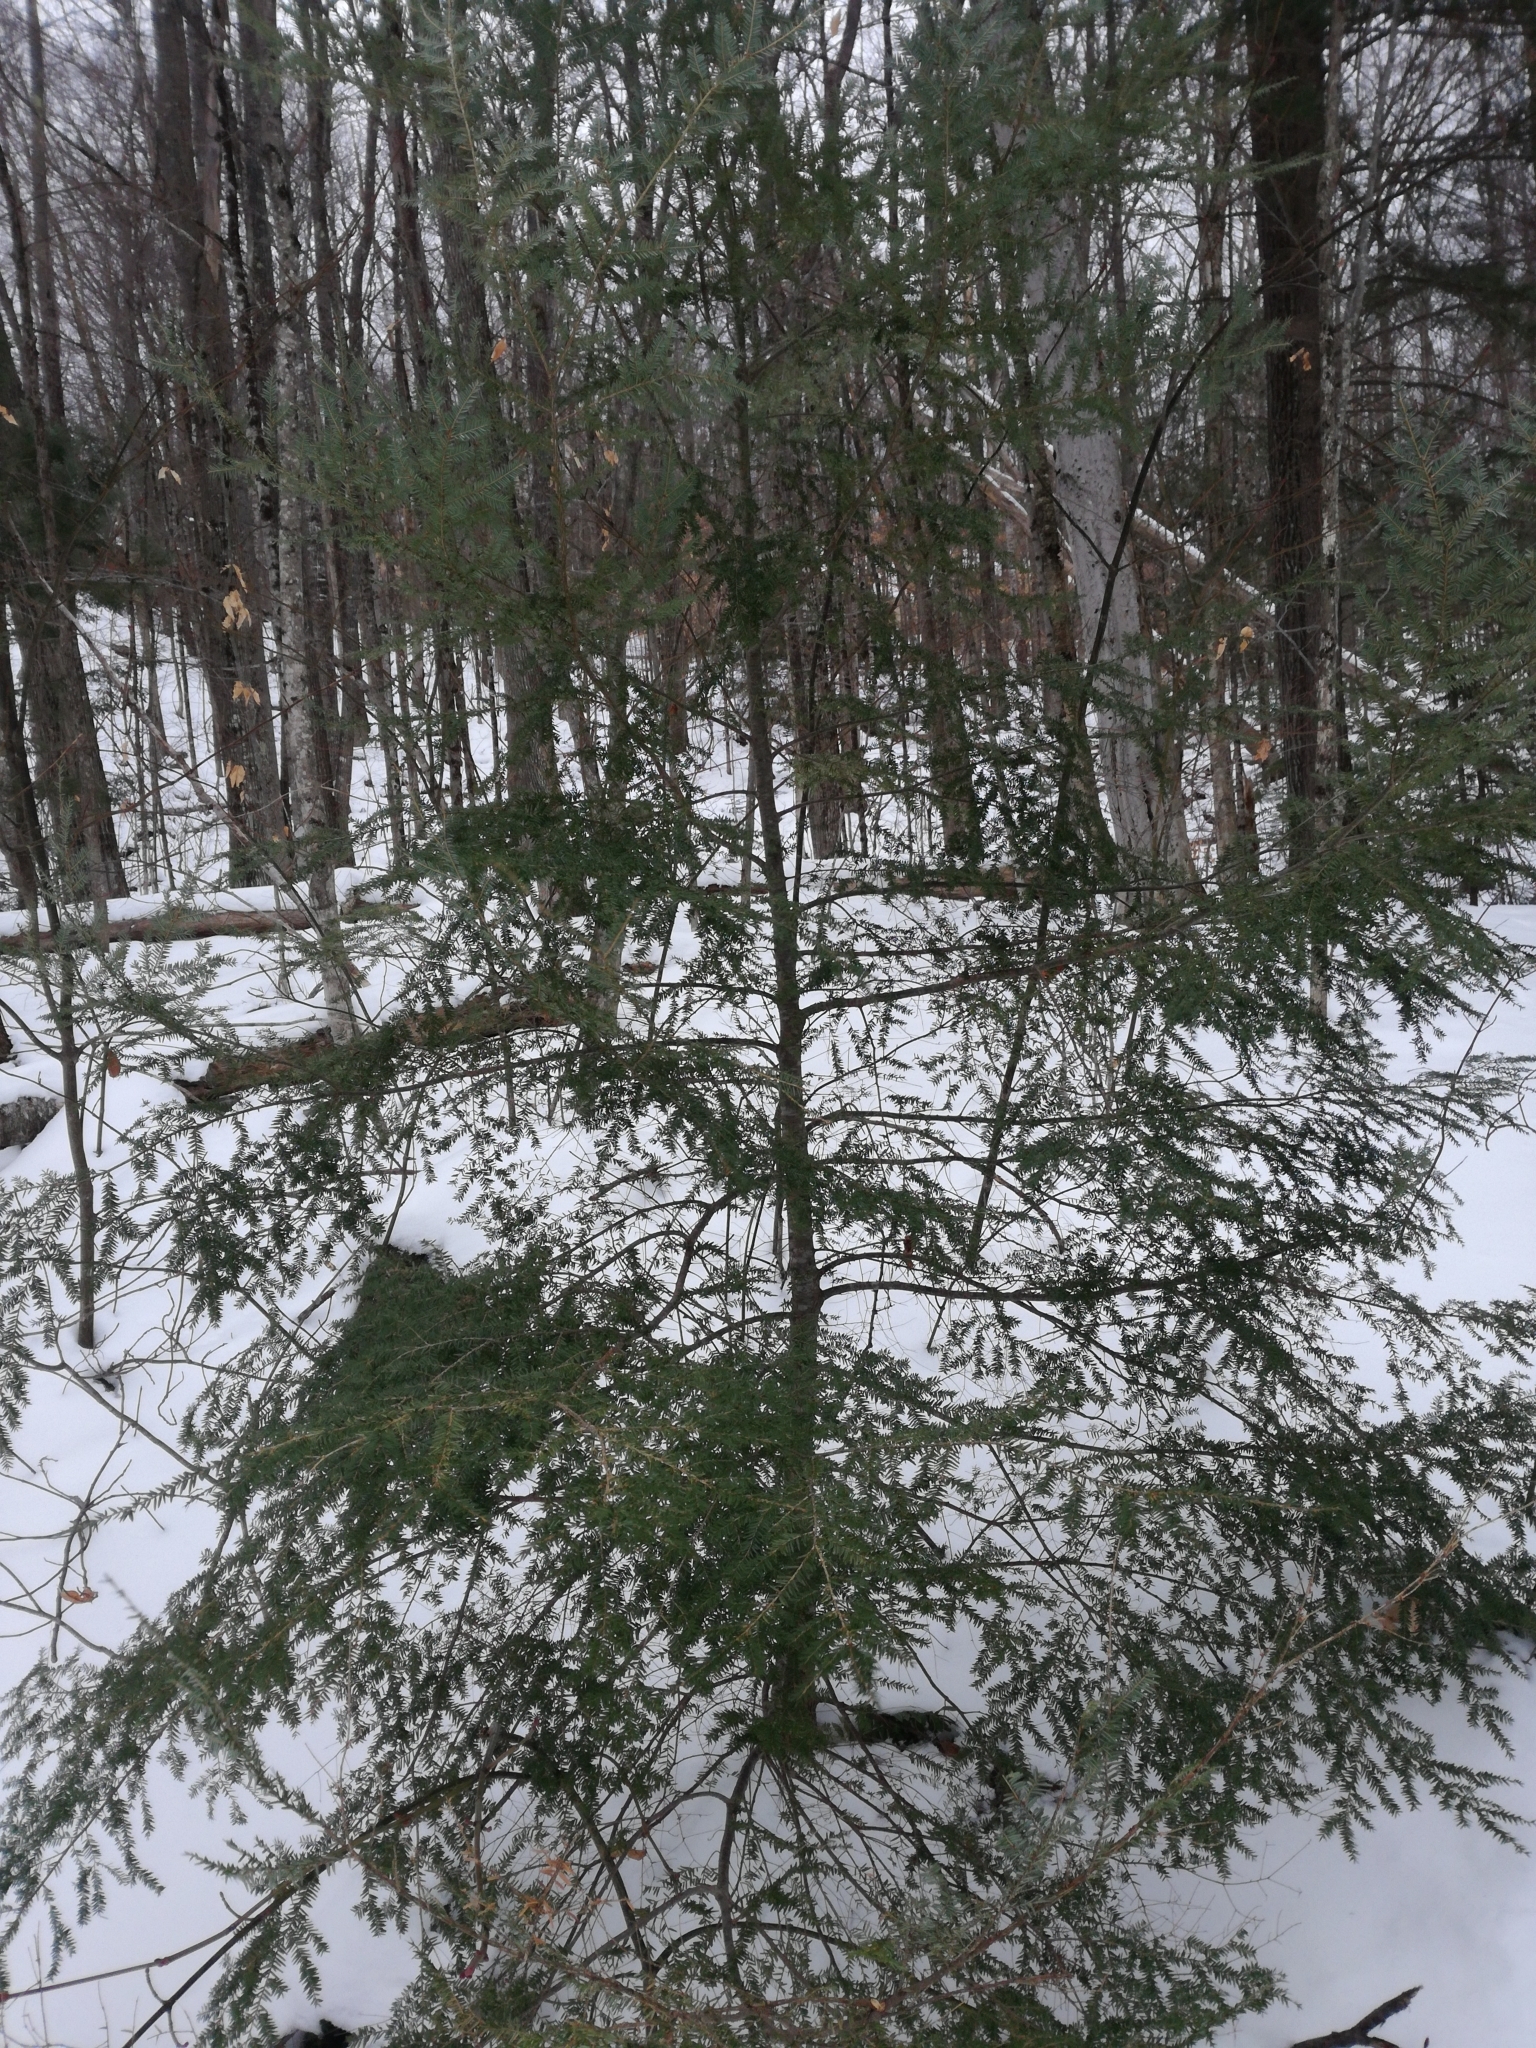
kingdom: Plantae
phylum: Tracheophyta
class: Pinopsida
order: Pinales
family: Pinaceae
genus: Tsuga
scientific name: Tsuga canadensis
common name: Eastern hemlock
